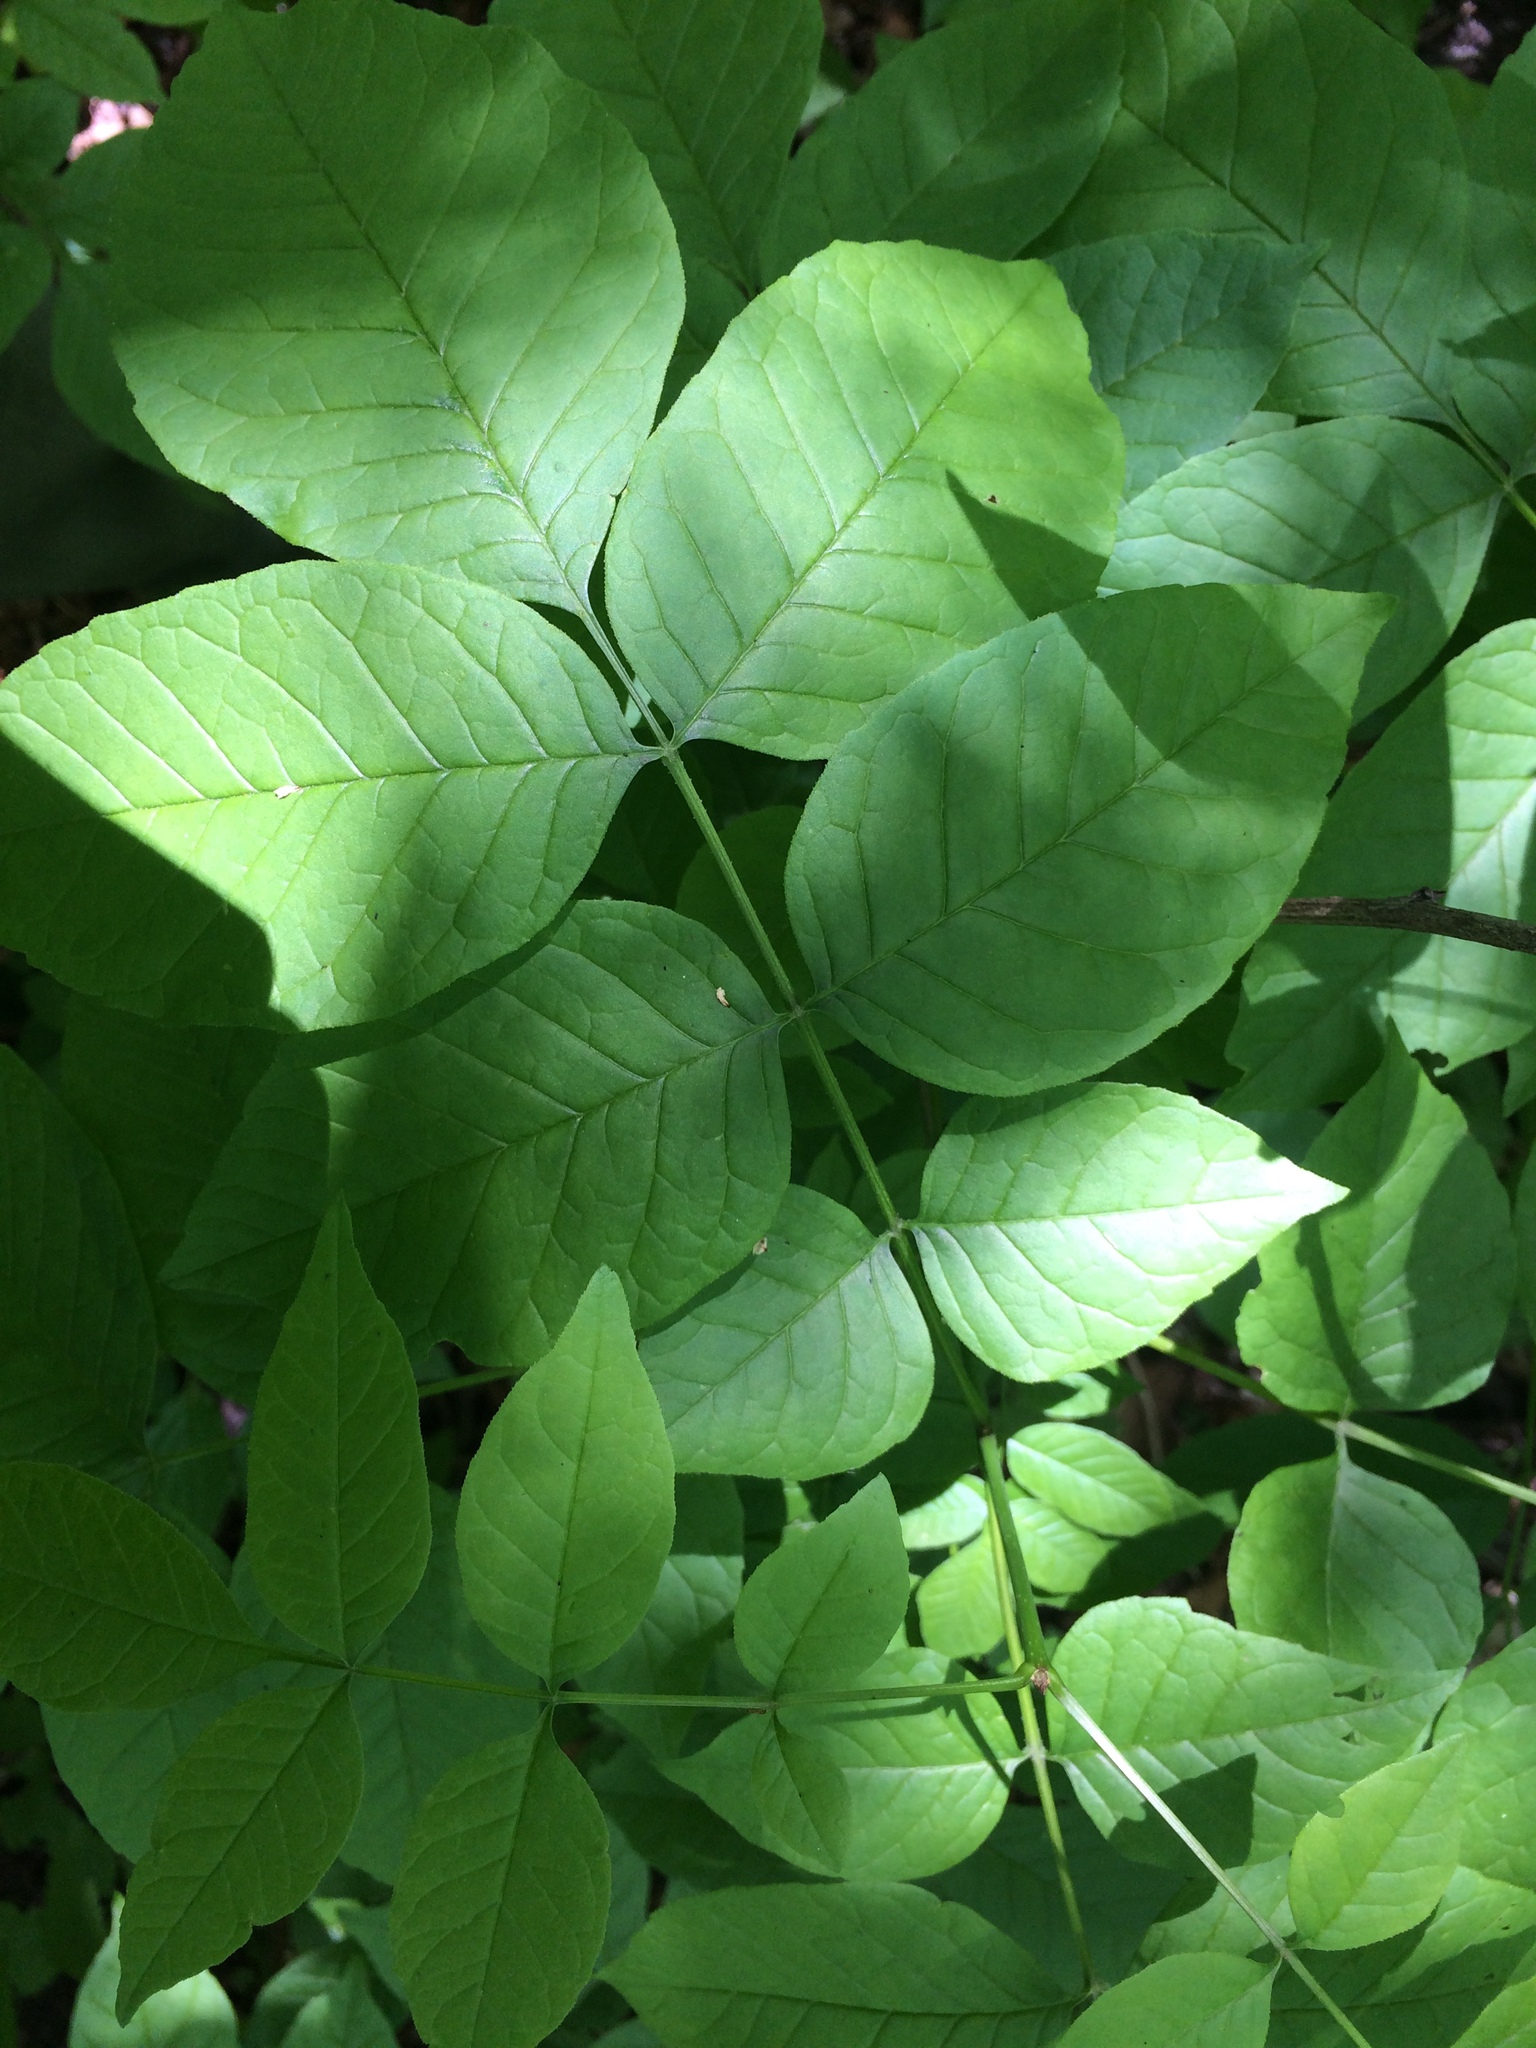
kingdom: Plantae
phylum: Tracheophyta
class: Magnoliopsida
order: Lamiales
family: Oleaceae
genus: Fraxinus
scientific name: Fraxinus pennsylvanica
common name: Green ash
